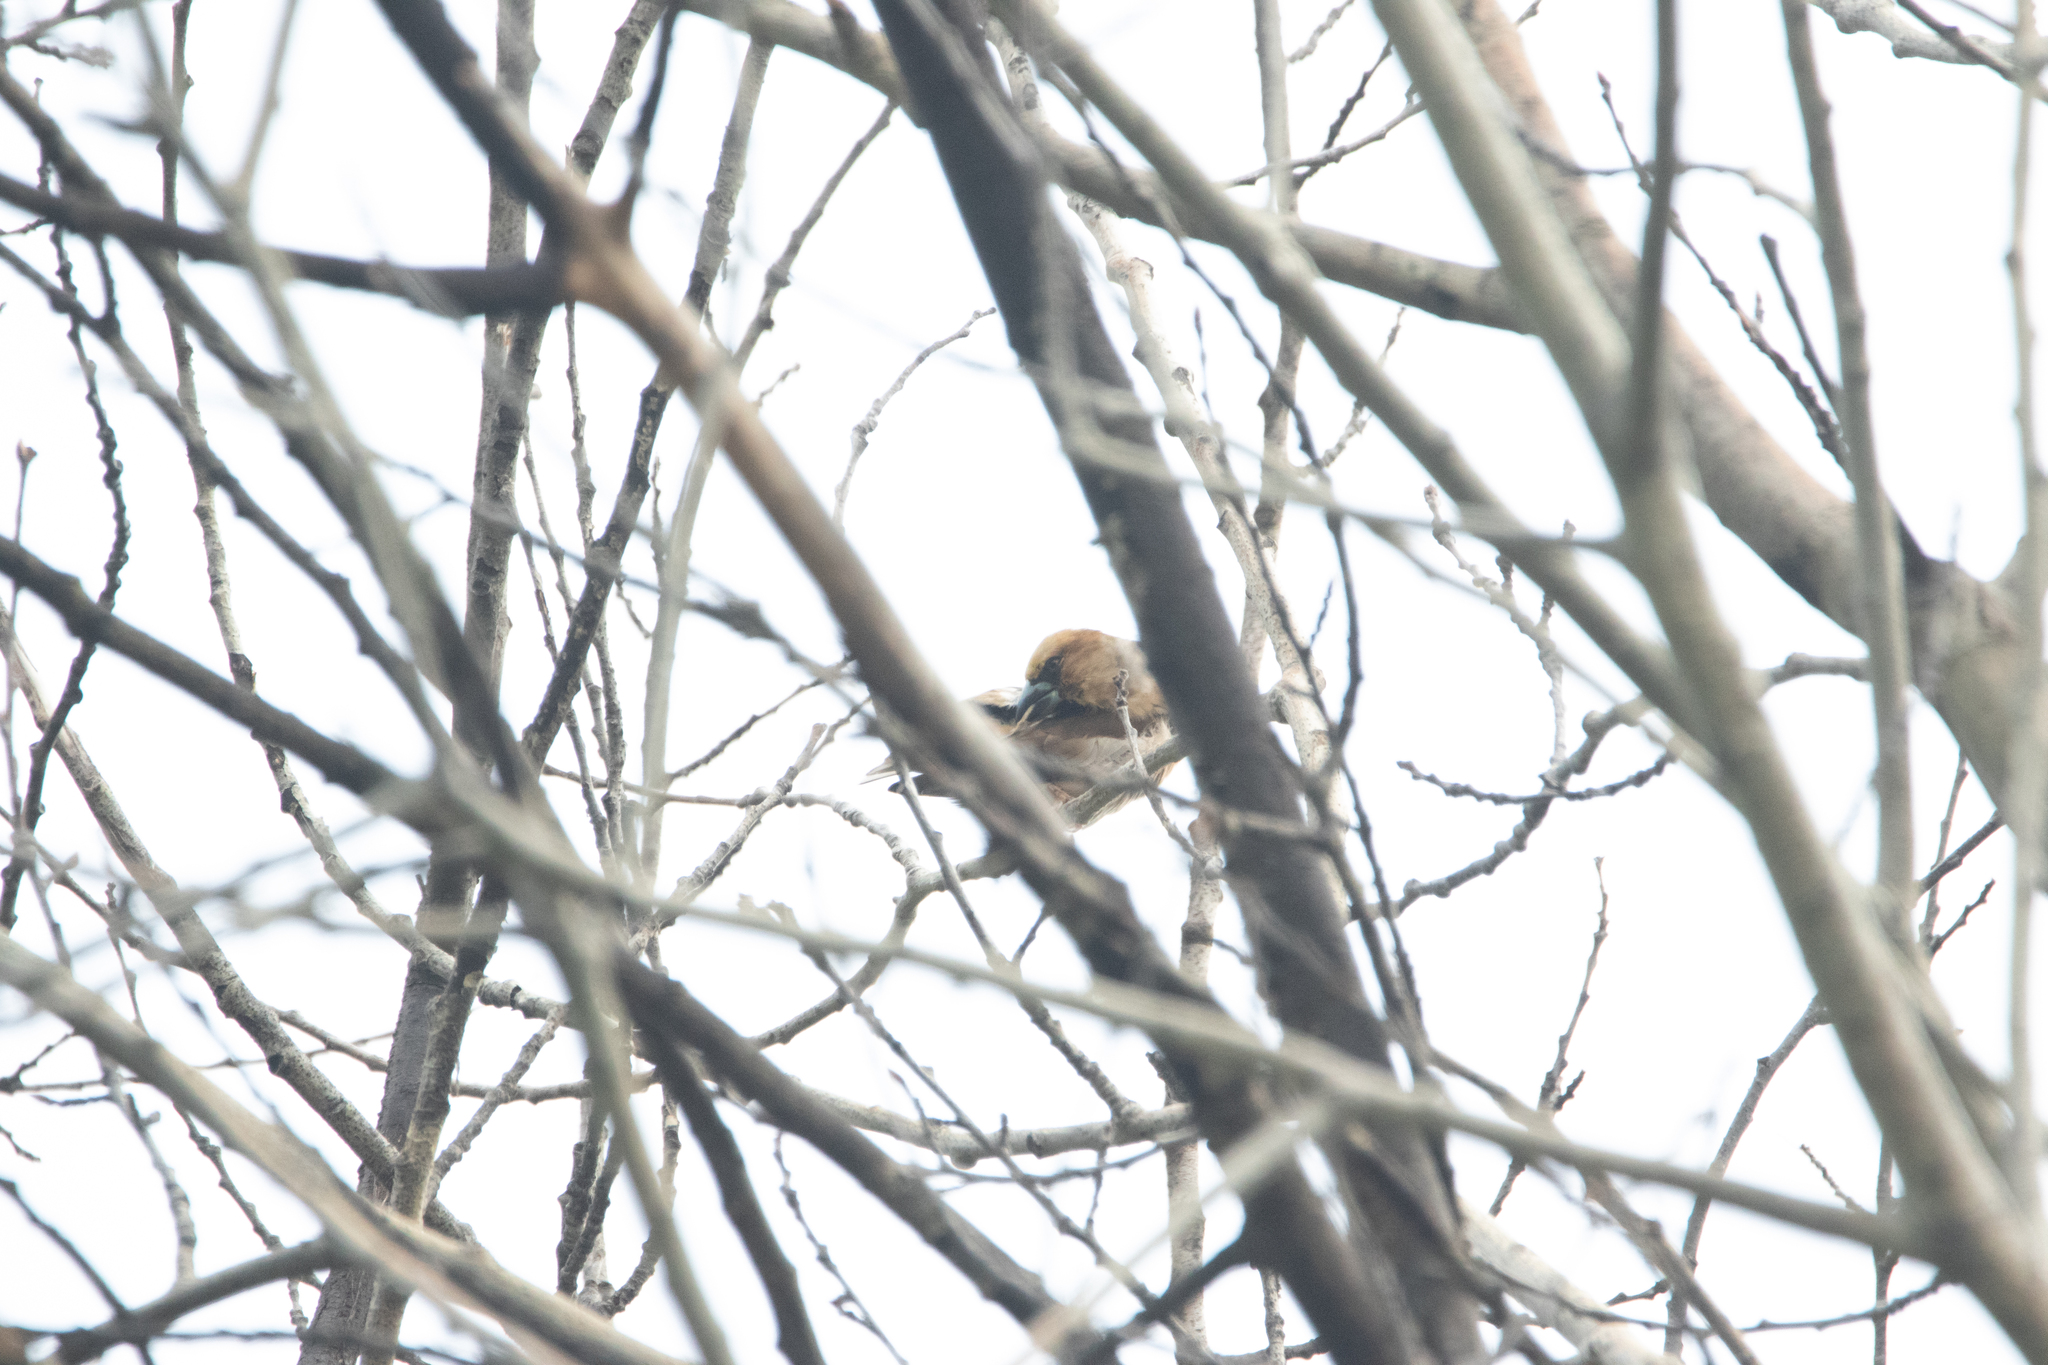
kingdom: Animalia
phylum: Chordata
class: Aves
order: Passeriformes
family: Fringillidae
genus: Coccothraustes
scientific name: Coccothraustes coccothraustes
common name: Hawfinch
